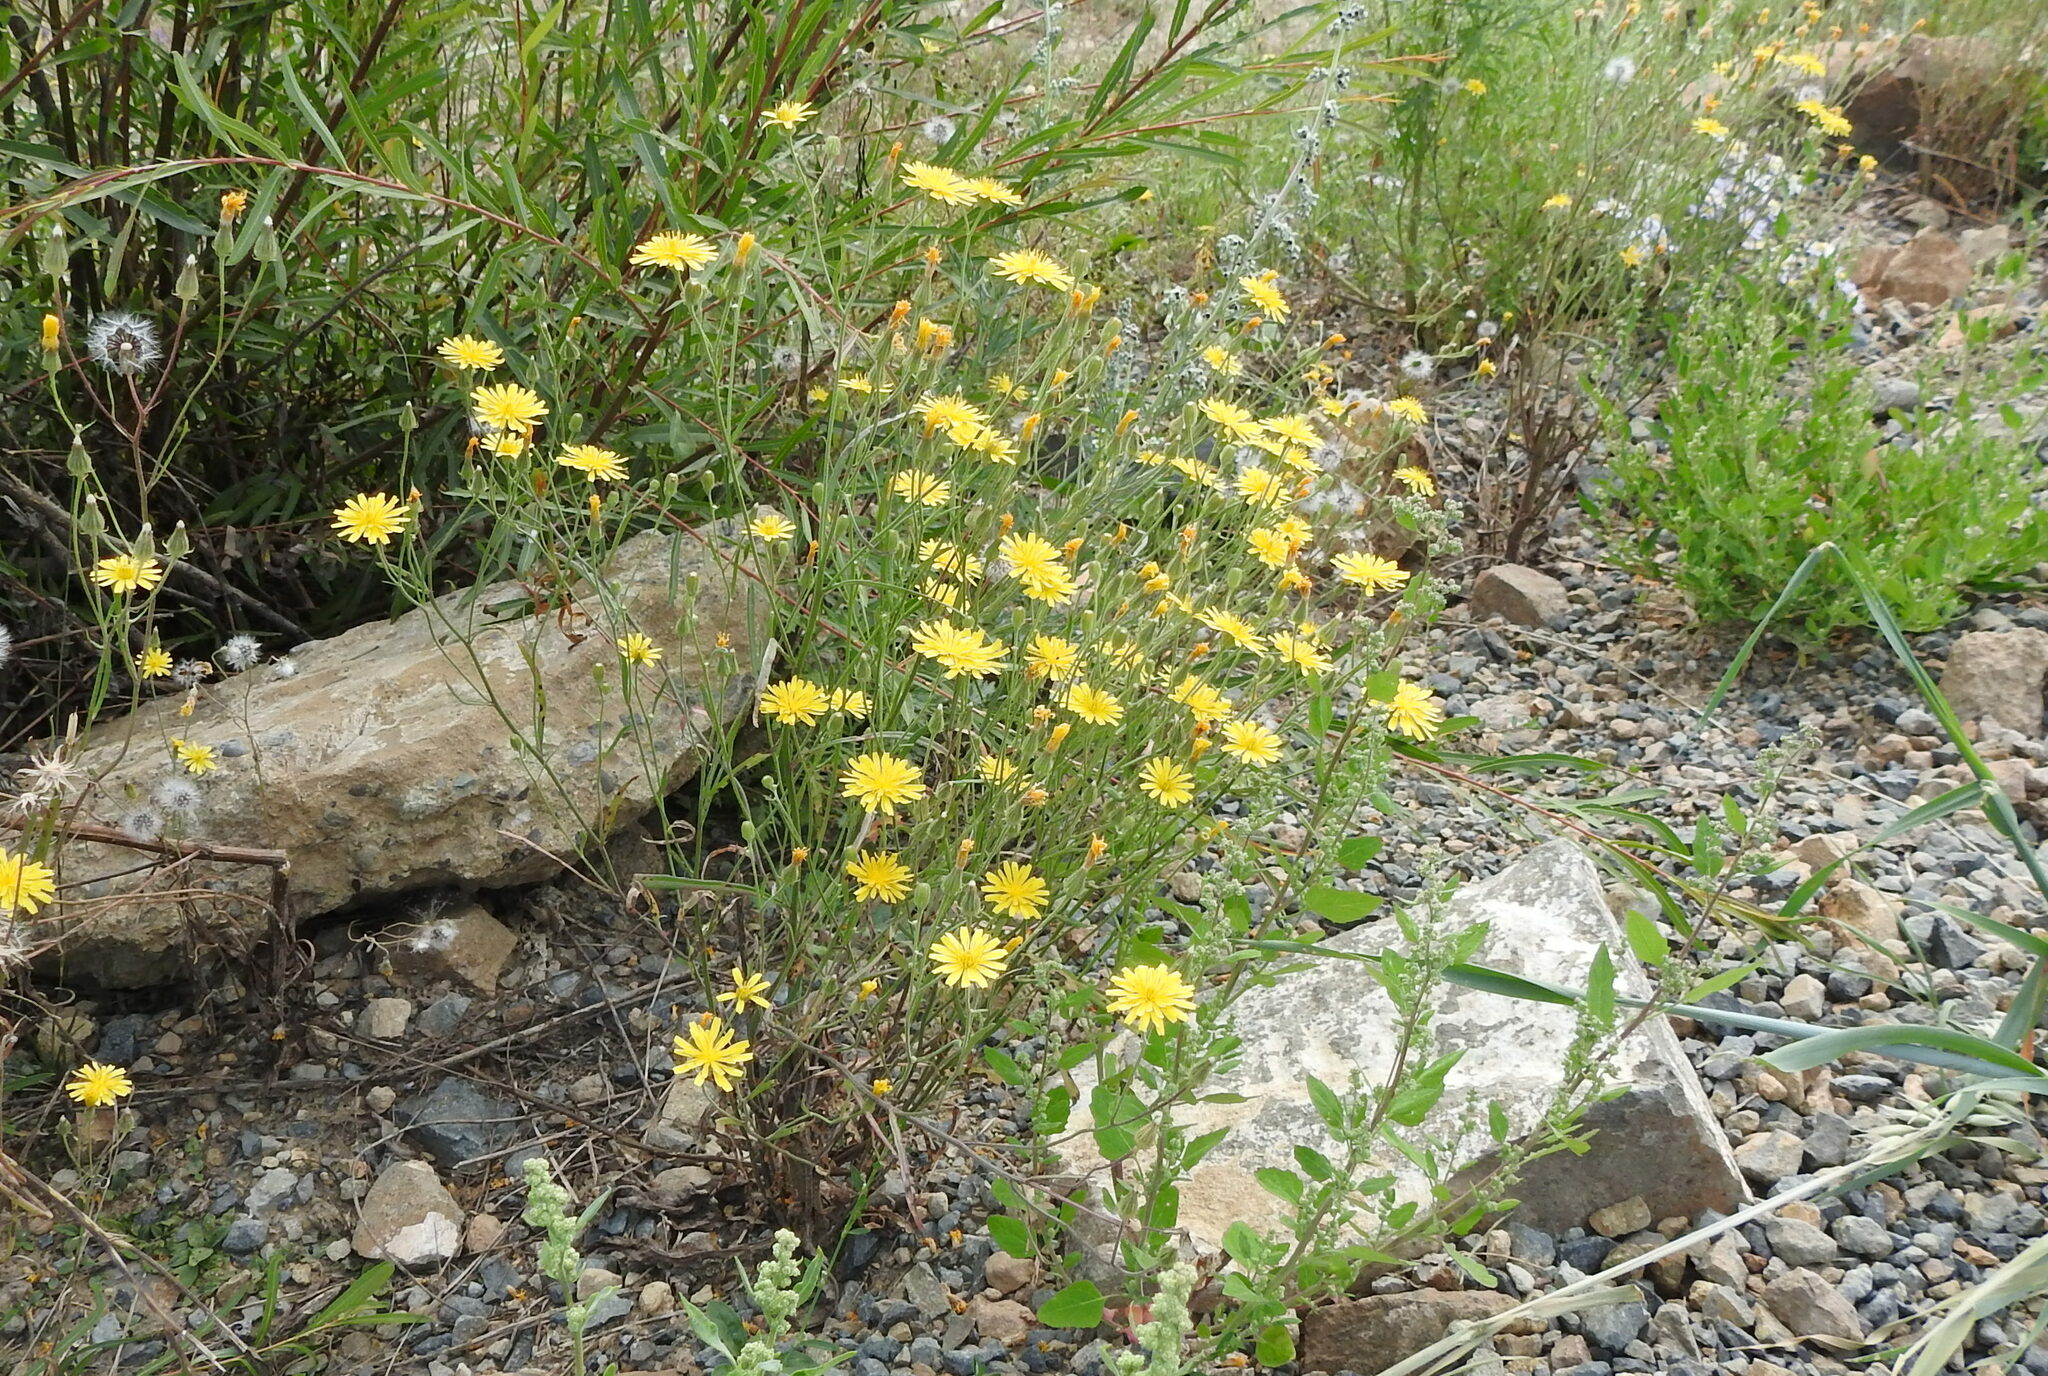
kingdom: Plantae
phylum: Tracheophyta
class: Magnoliopsida
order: Asterales
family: Asteraceae
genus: Crepis
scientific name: Crepis tectorum
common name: Narrow-leaved hawk's-beard
